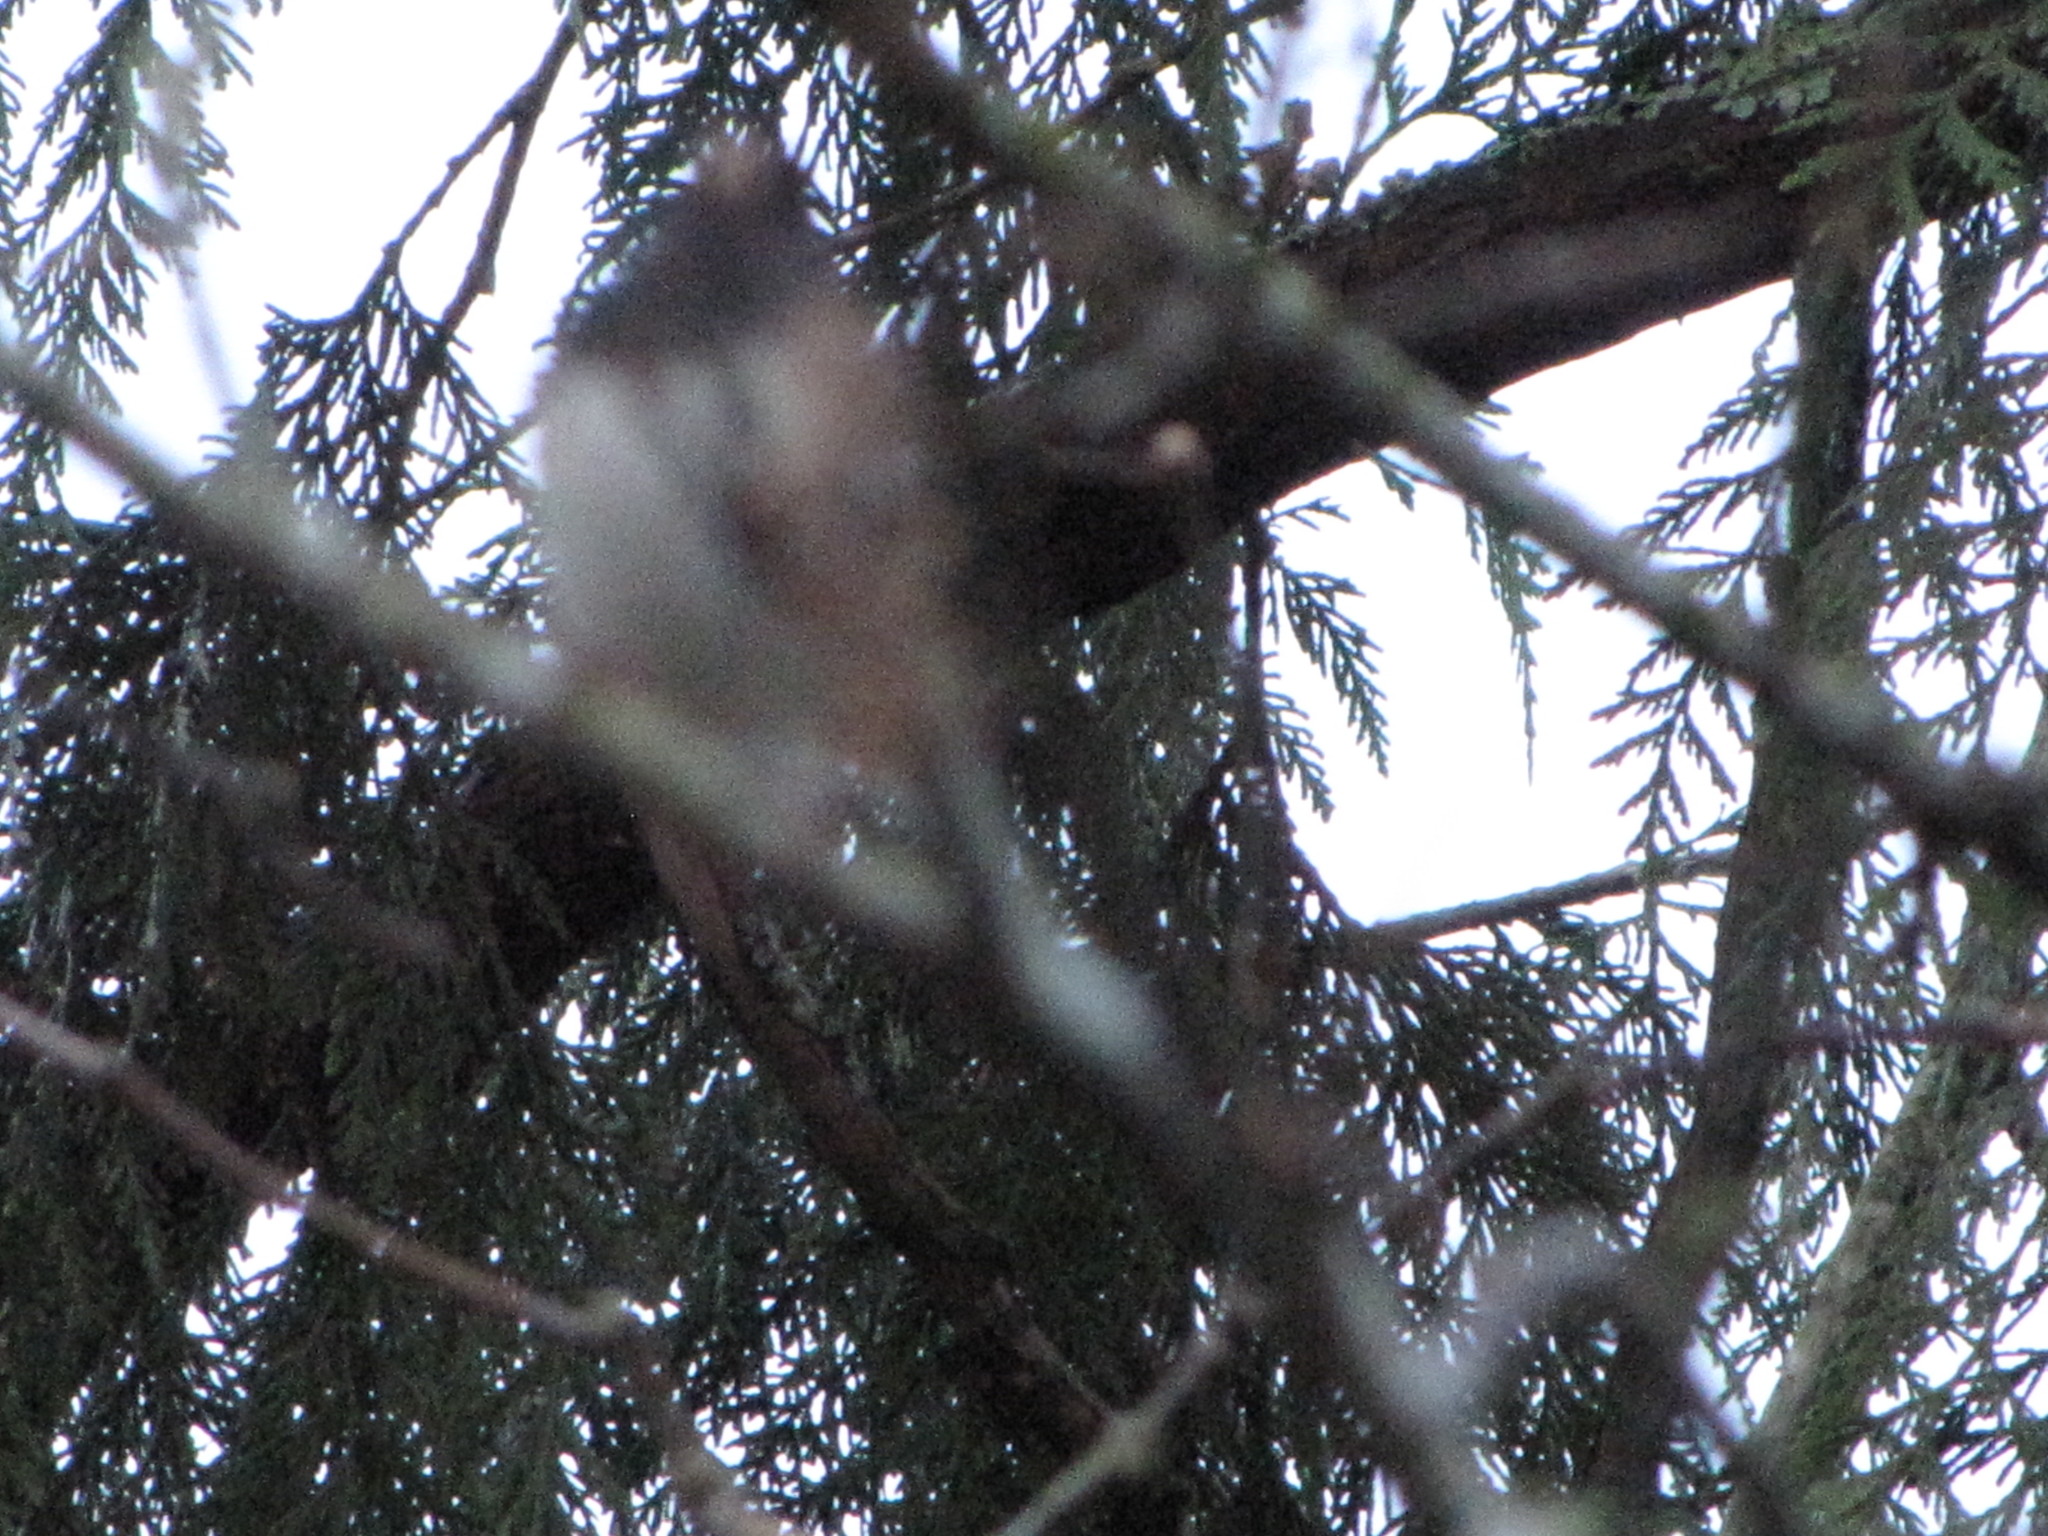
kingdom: Animalia
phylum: Chordata
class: Aves
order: Passeriformes
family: Passerellidae
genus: Junco
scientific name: Junco hyemalis
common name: Dark-eyed junco
